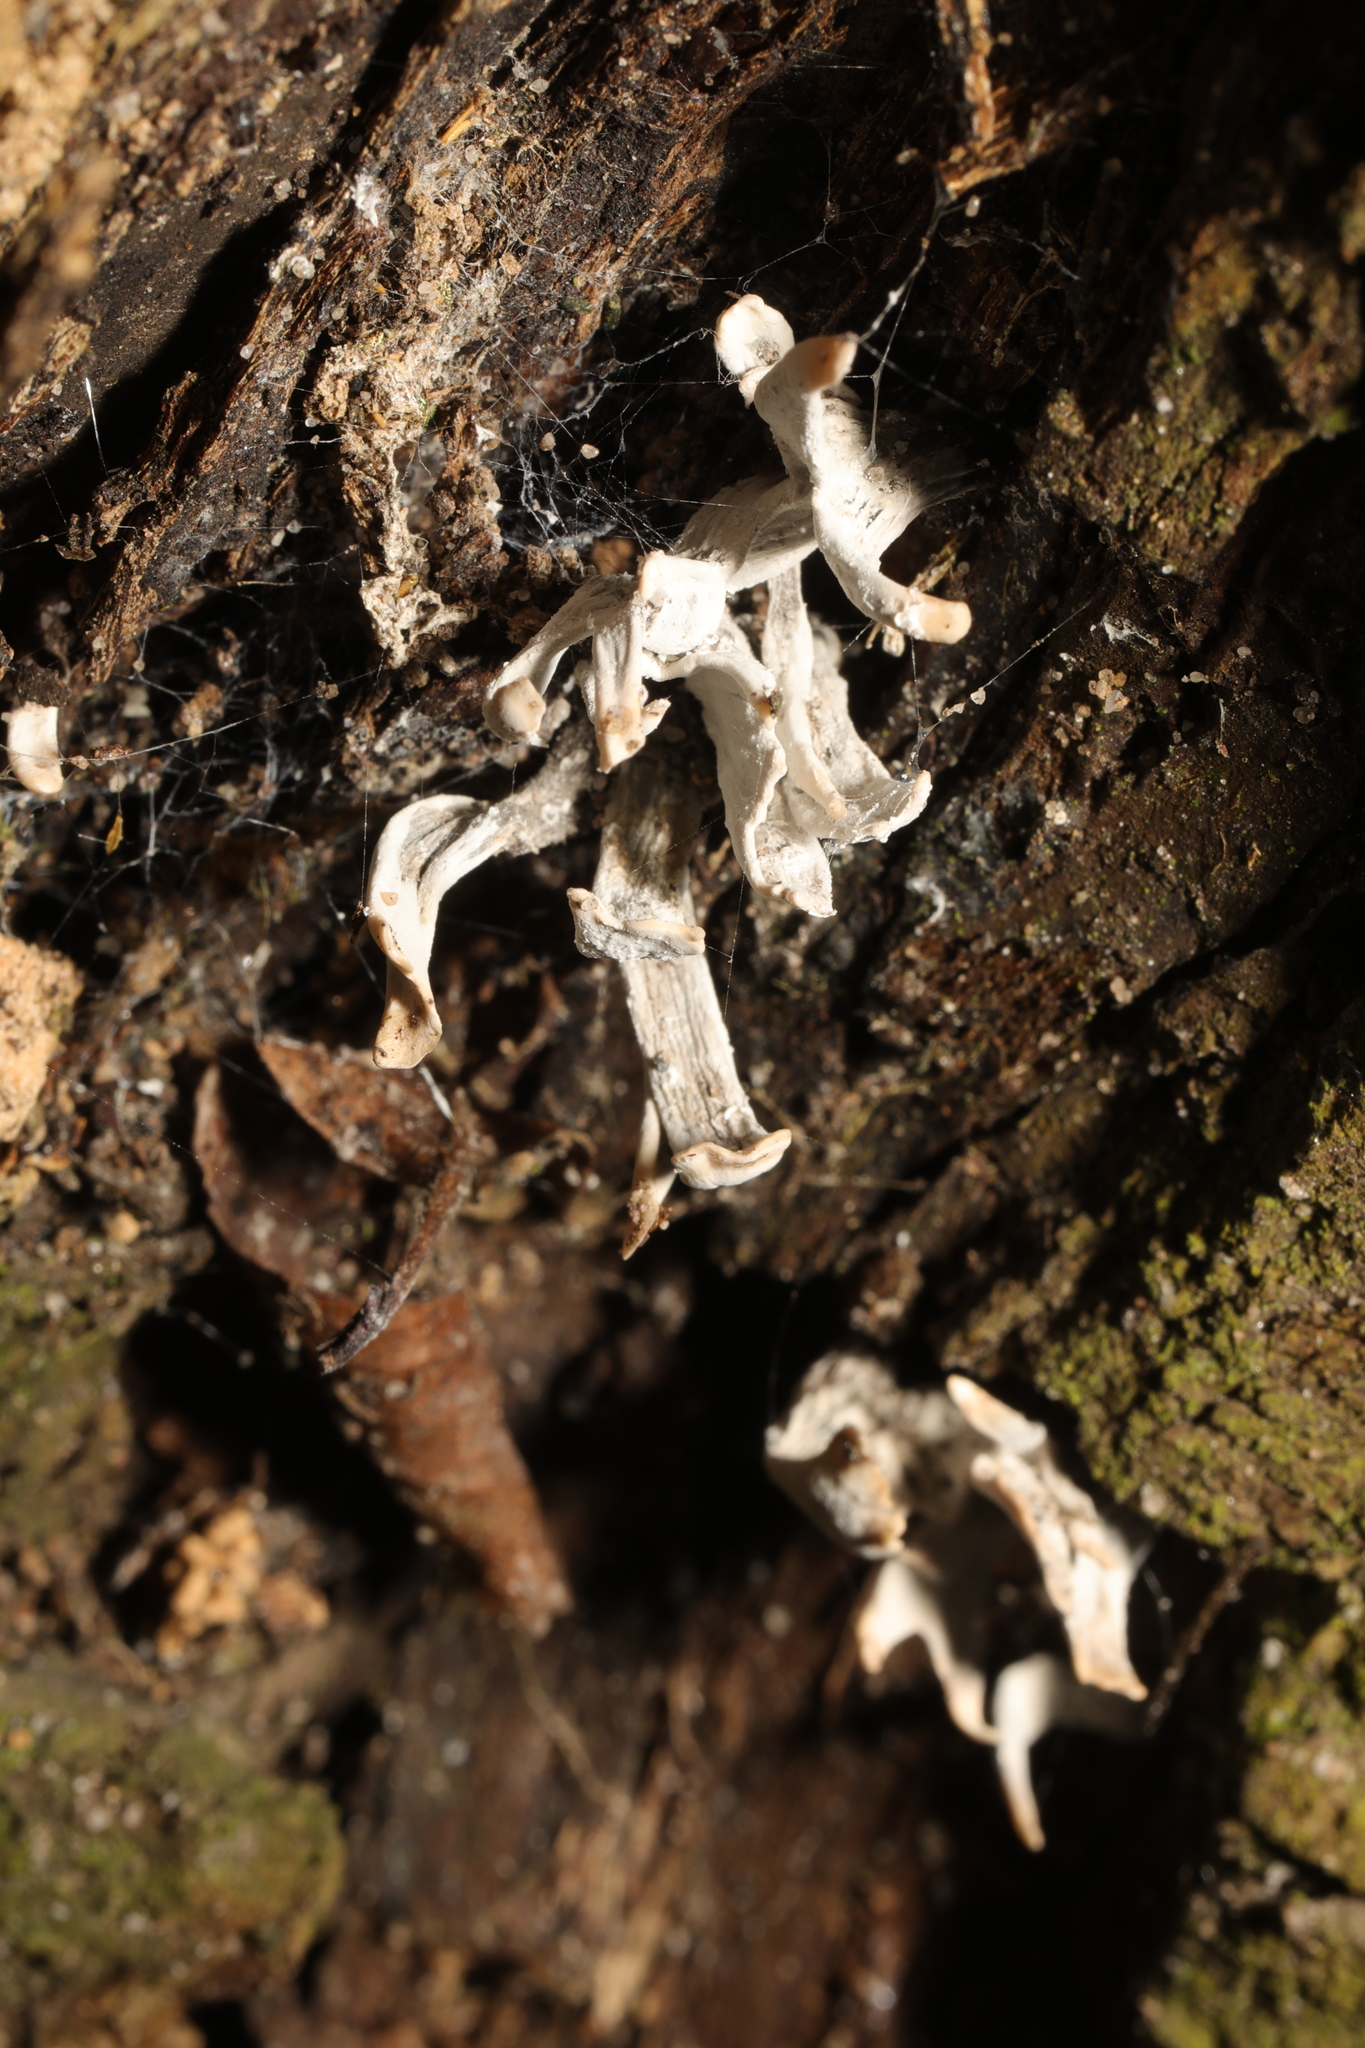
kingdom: Fungi
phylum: Ascomycota
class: Sordariomycetes
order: Xylariales
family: Xylariaceae
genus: Xylaria
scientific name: Xylaria hypoxylon
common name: Candle-snuff fungus
